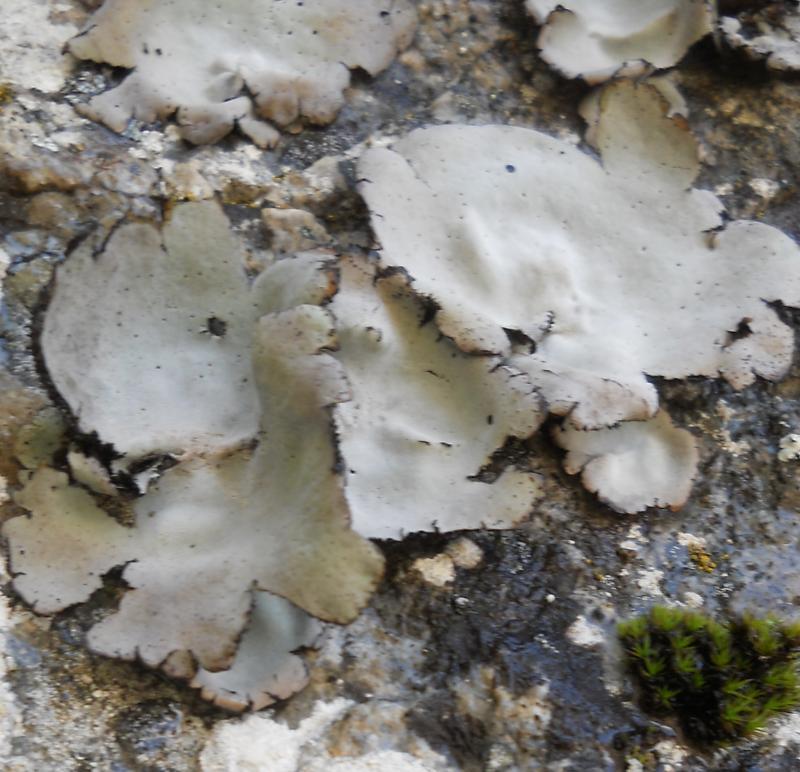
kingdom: Fungi
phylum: Ascomycota
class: Lecanoromycetes
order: Umbilicariales
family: Umbilicariaceae
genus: Umbilicaria
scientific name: Umbilicaria hirsuta
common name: Granulating rocktripe lichen
